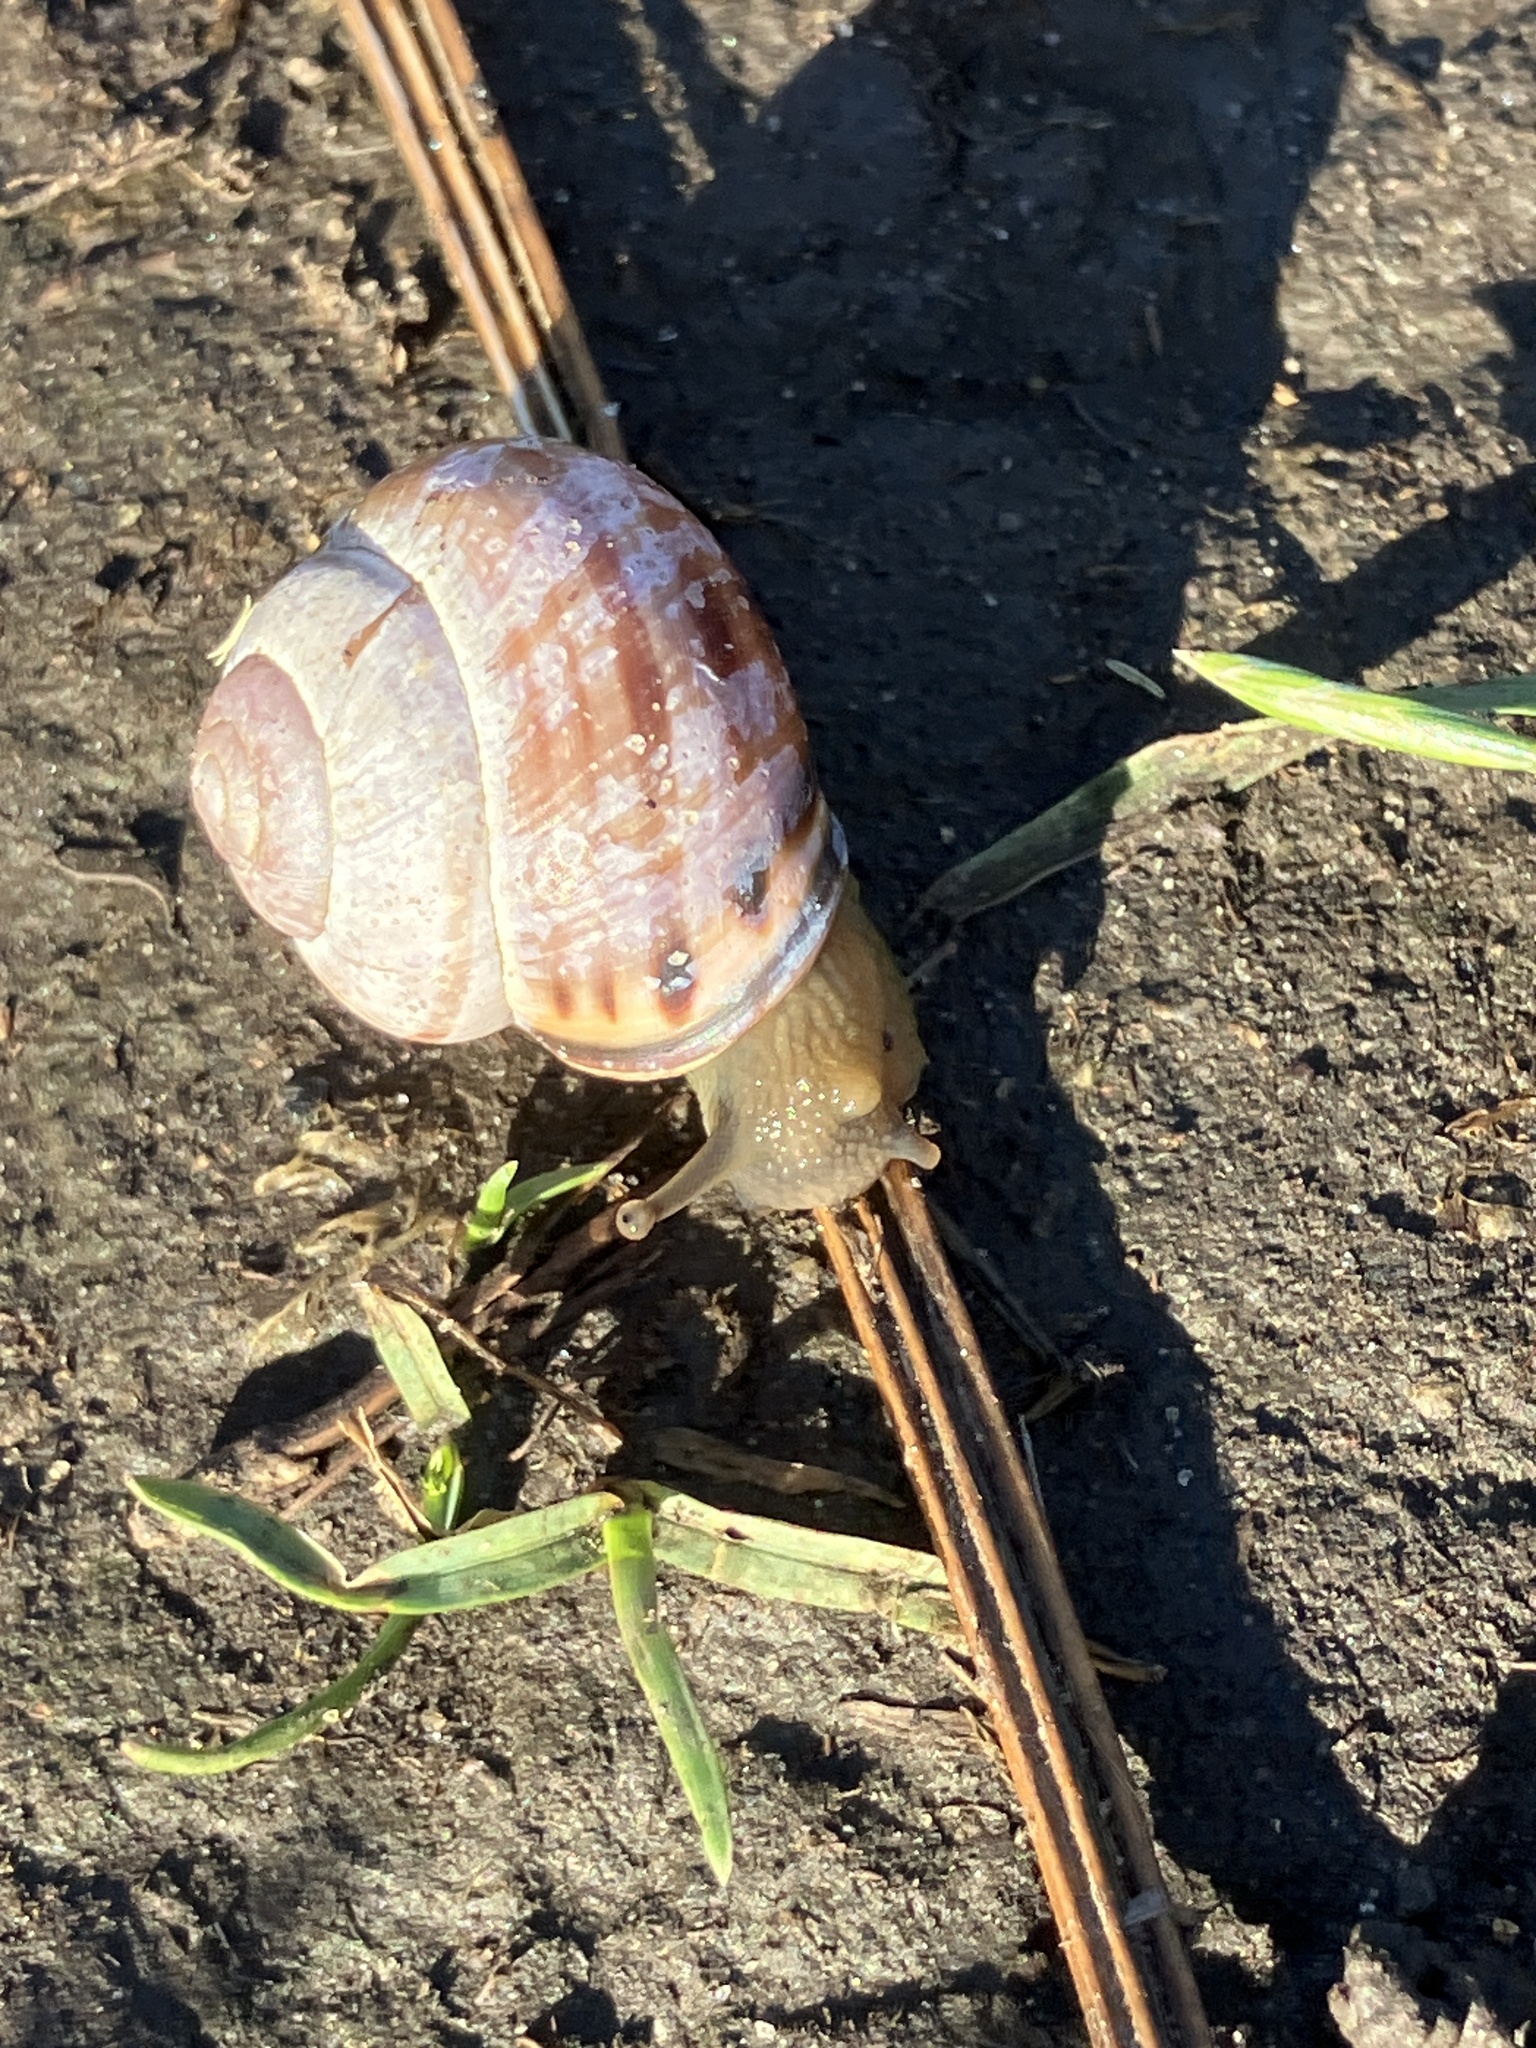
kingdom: Animalia
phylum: Mollusca
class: Gastropoda
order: Stylommatophora
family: Helicidae
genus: Cepaea
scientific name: Cepaea nemoralis
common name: Grovesnail
